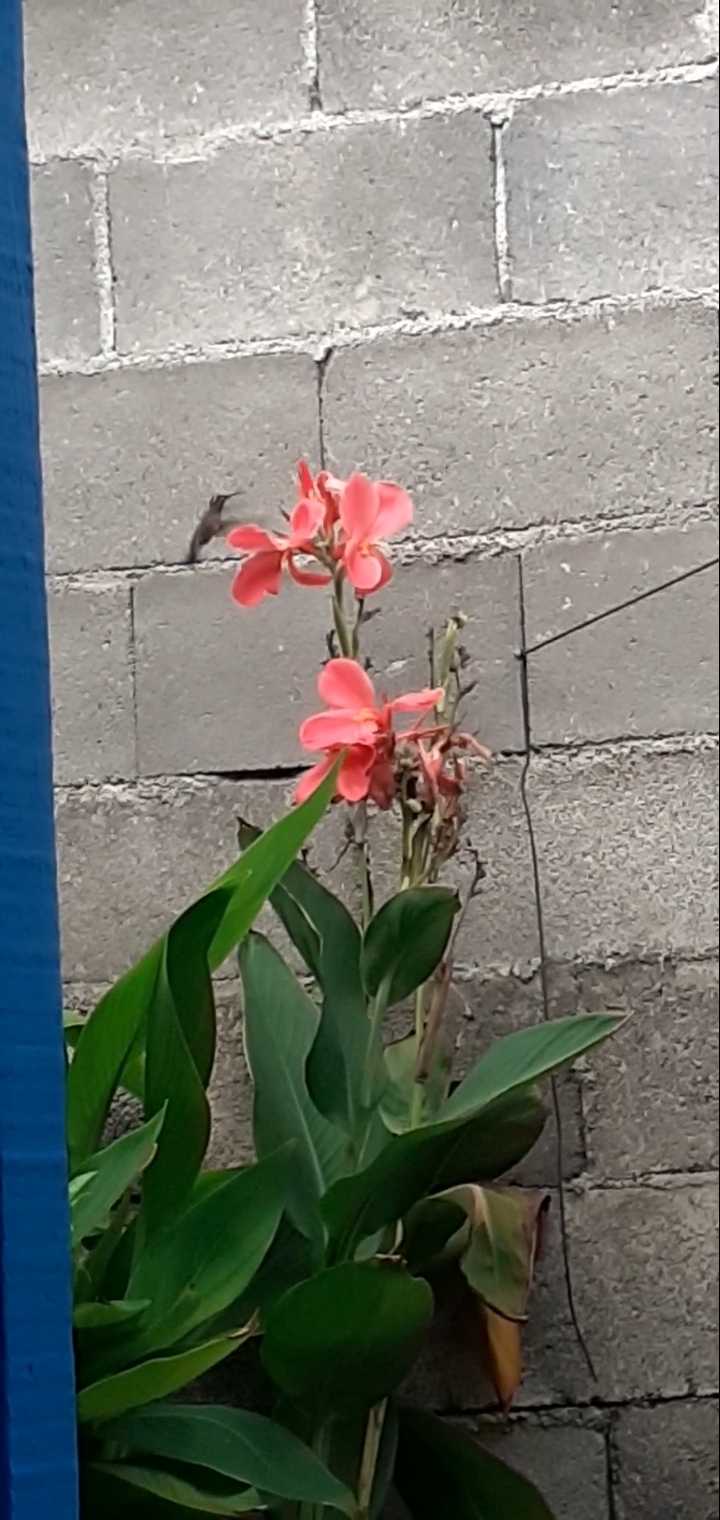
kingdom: Animalia
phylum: Chordata
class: Aves
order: Apodiformes
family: Trochilidae
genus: Cynanthus
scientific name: Cynanthus latirostris
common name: Broad-billed hummingbird
